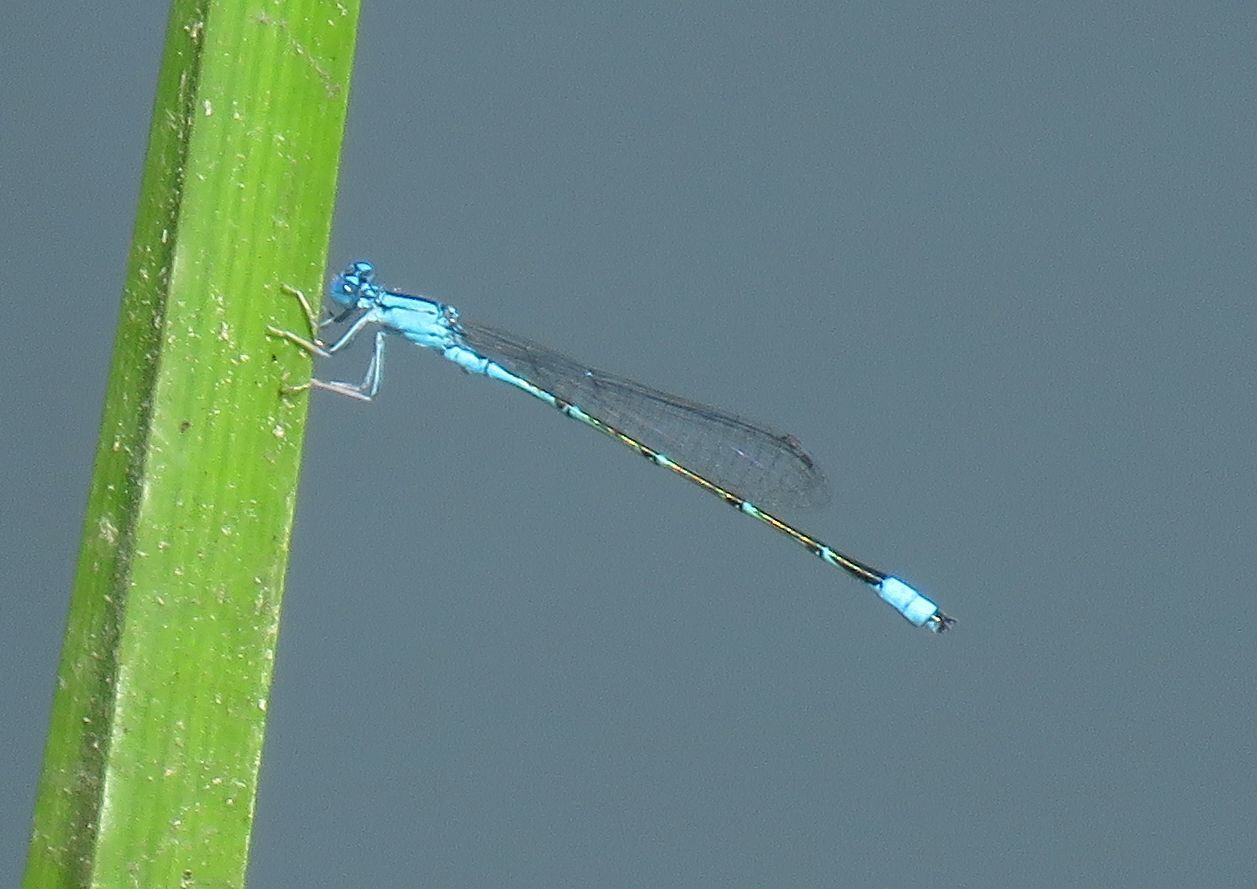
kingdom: Animalia
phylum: Arthropoda
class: Insecta
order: Odonata
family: Coenagrionidae
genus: Enallagma
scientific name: Enallagma traviatum
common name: Slender bluet
